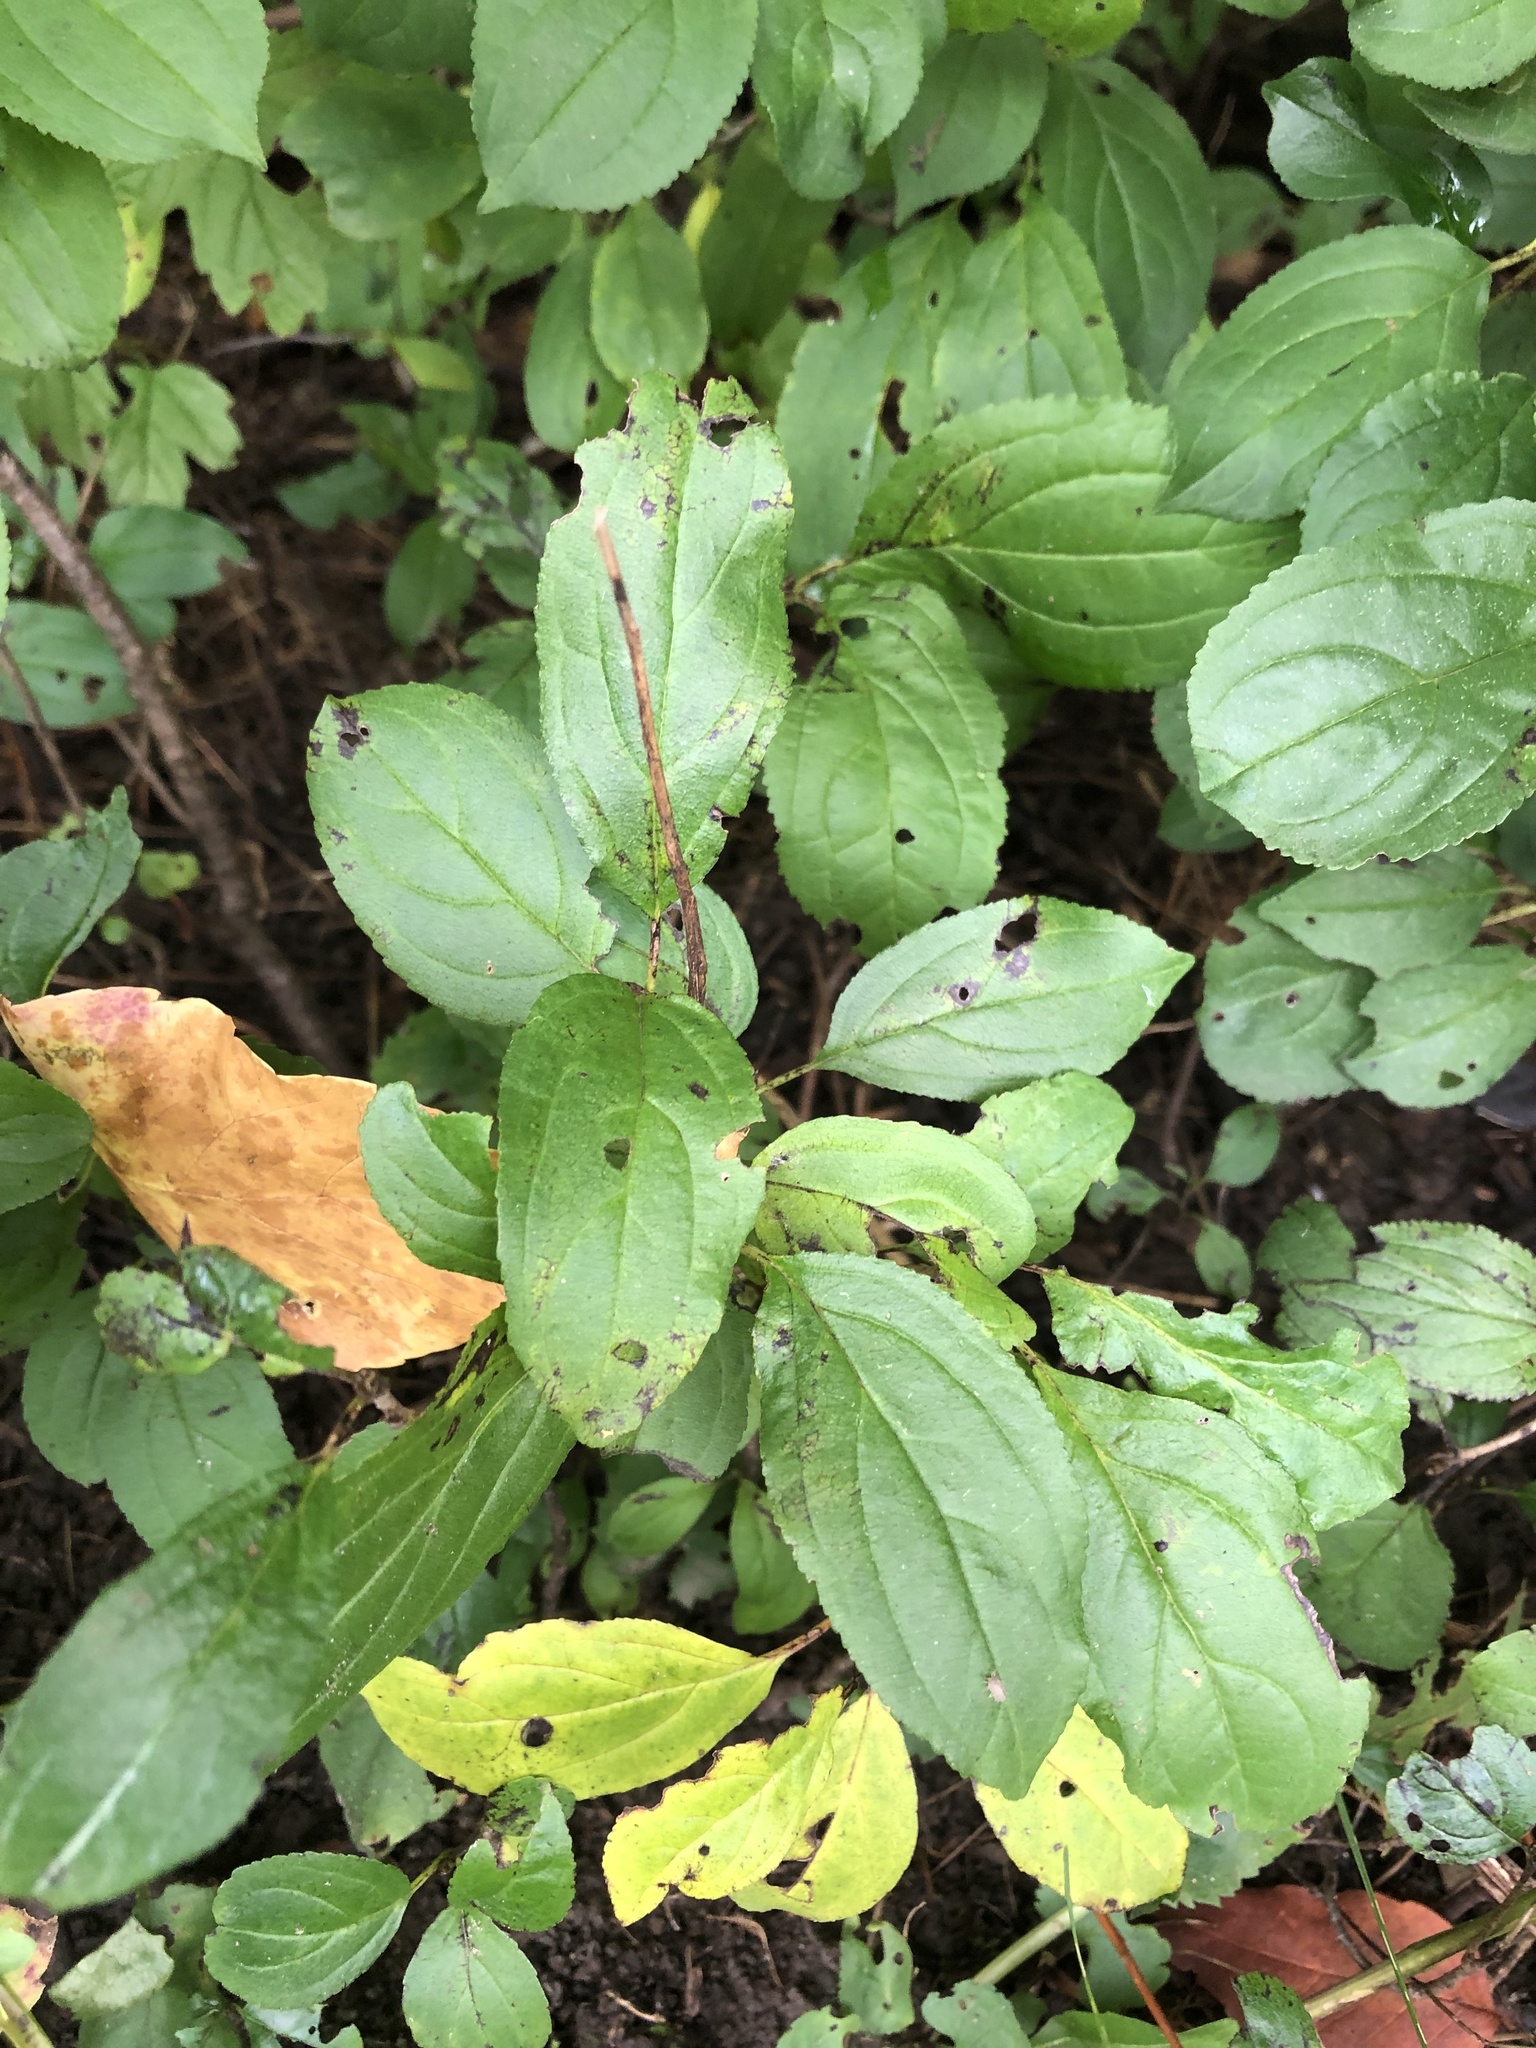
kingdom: Plantae
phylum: Tracheophyta
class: Magnoliopsida
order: Rosales
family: Rhamnaceae
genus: Rhamnus
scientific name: Rhamnus cathartica
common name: Common buckthorn
